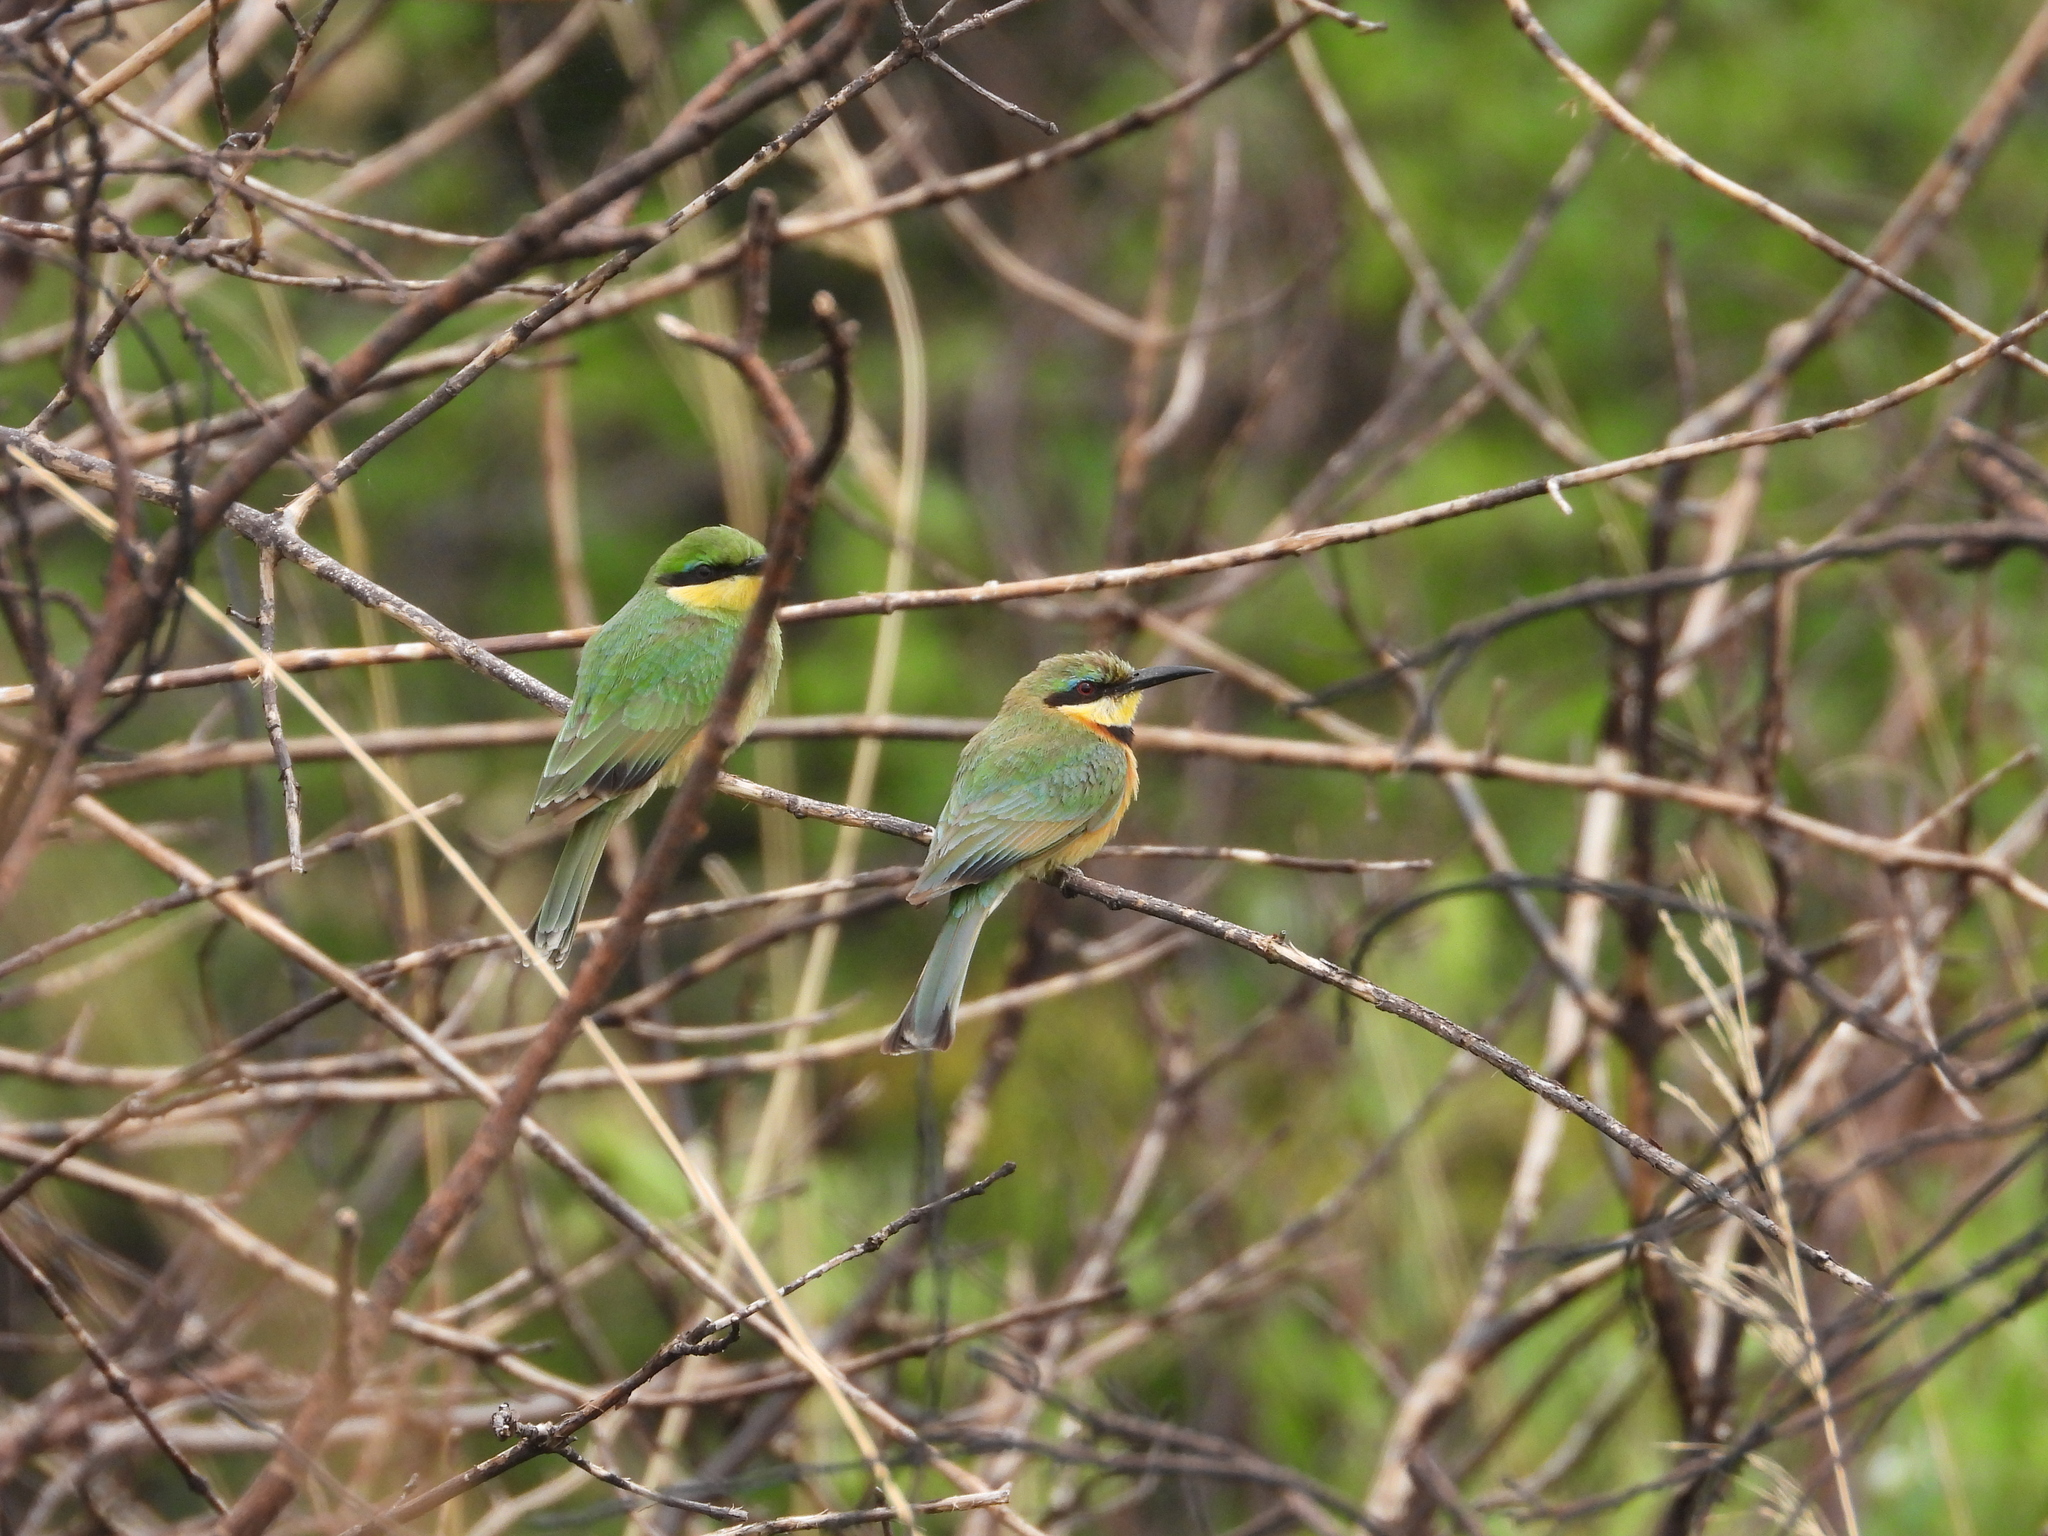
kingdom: Animalia
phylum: Chordata
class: Aves
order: Coraciiformes
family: Meropidae
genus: Merops
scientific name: Merops pusillus
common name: Little bee-eater
